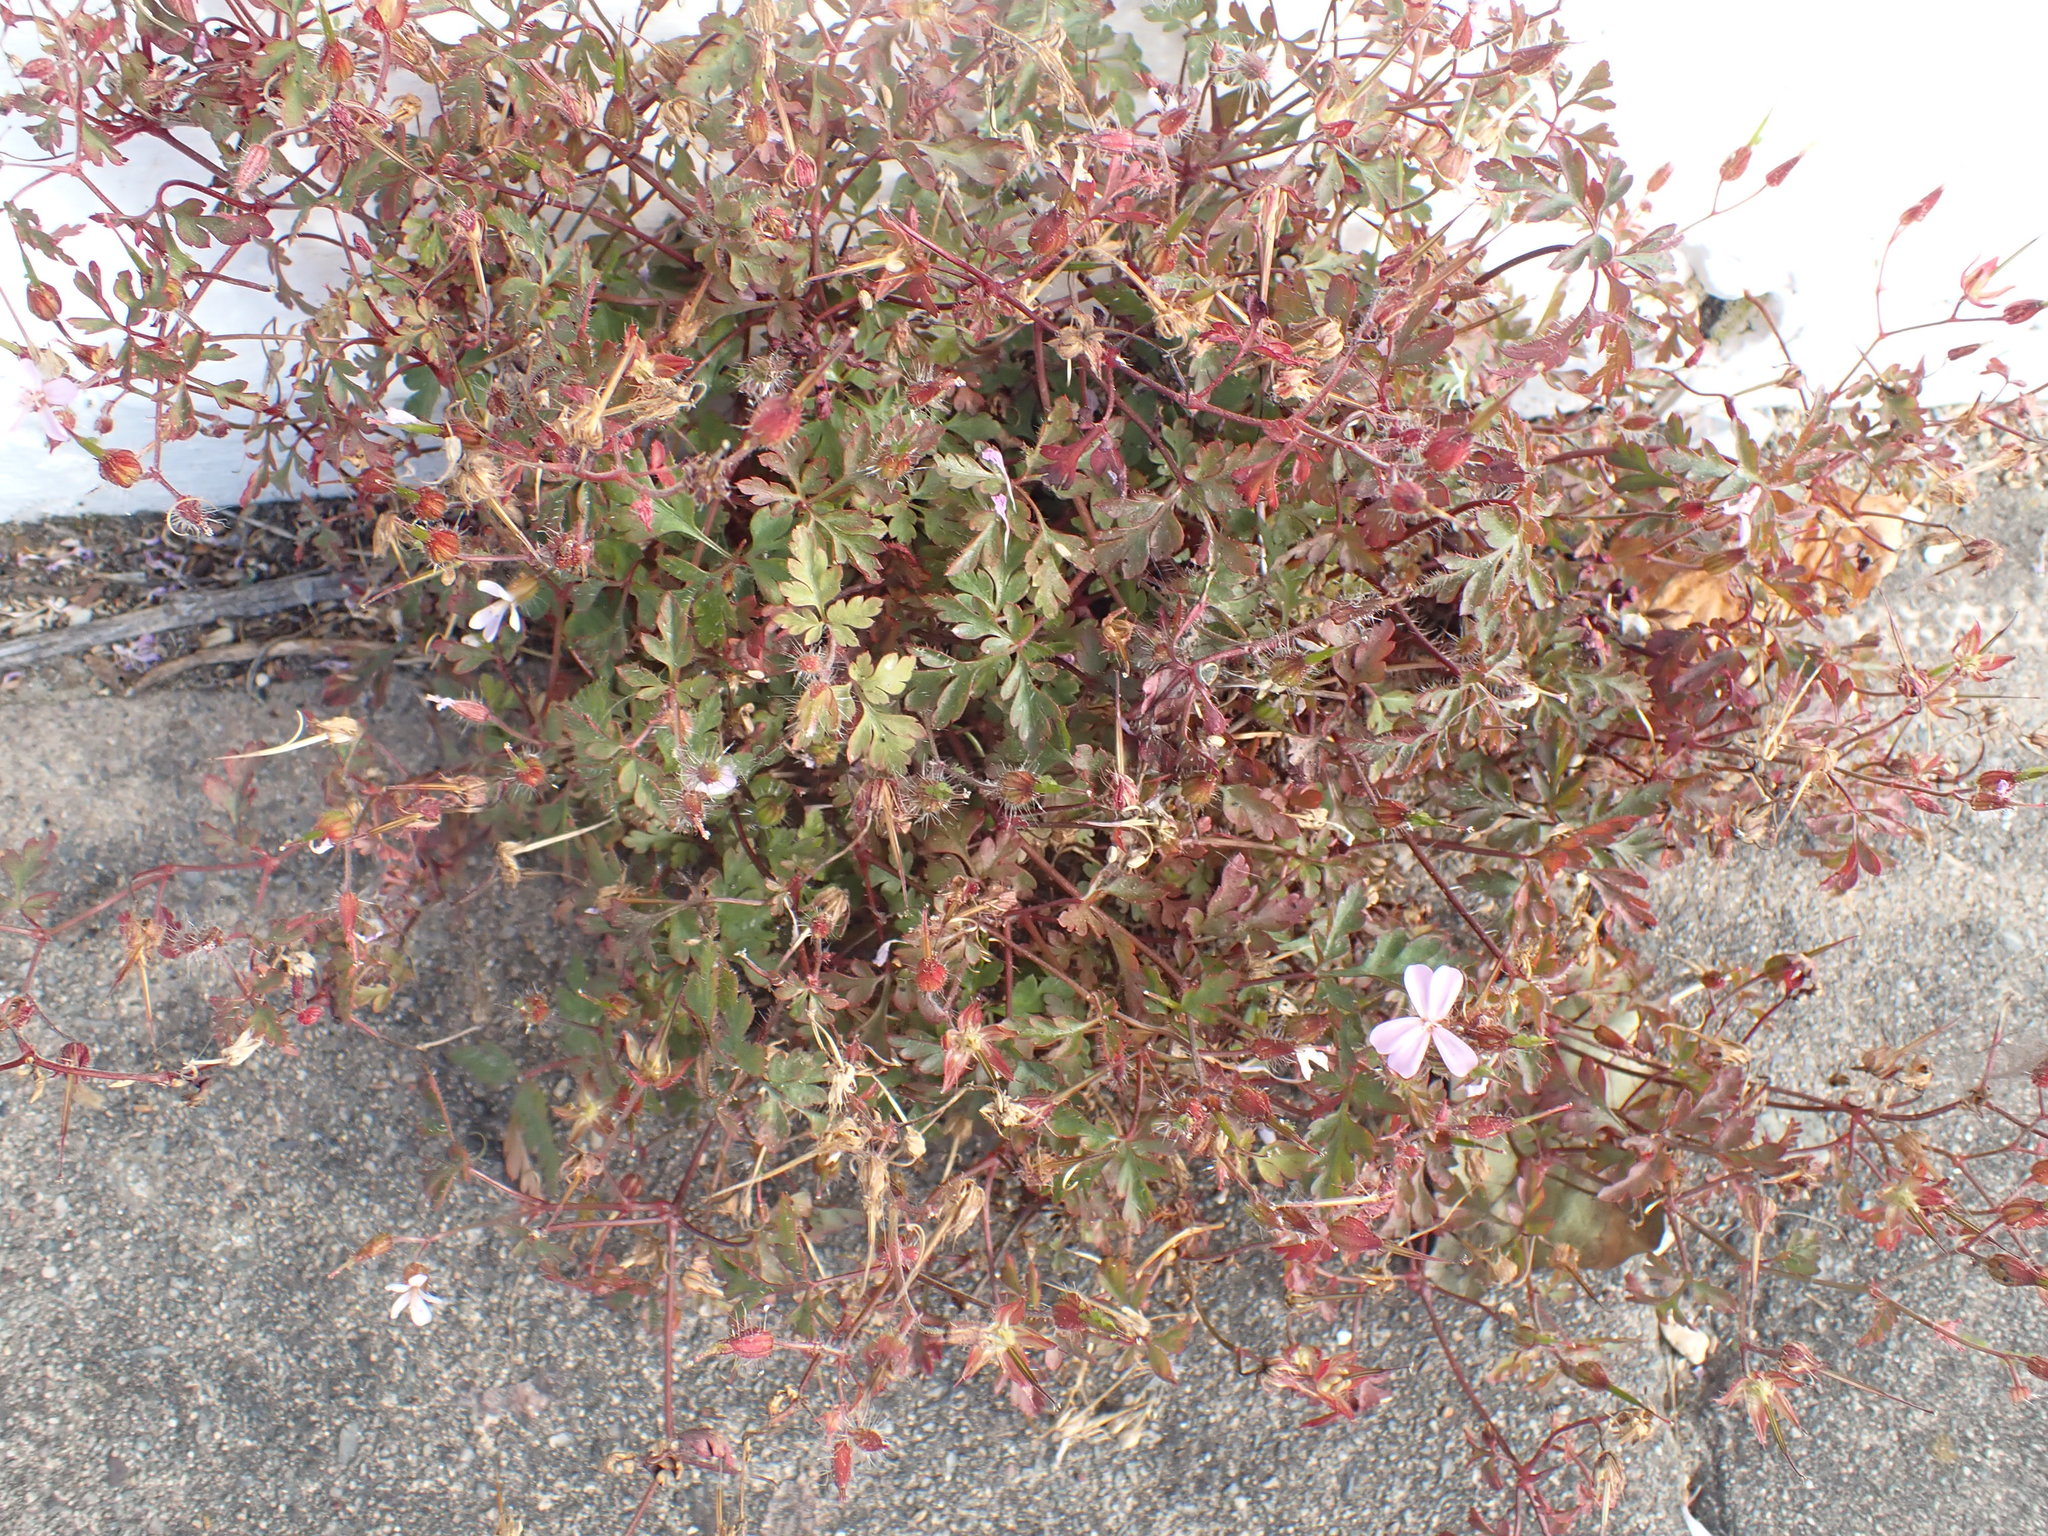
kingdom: Plantae
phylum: Tracheophyta
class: Magnoliopsida
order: Geraniales
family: Geraniaceae
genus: Geranium
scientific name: Geranium robertianum
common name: Herb-robert
